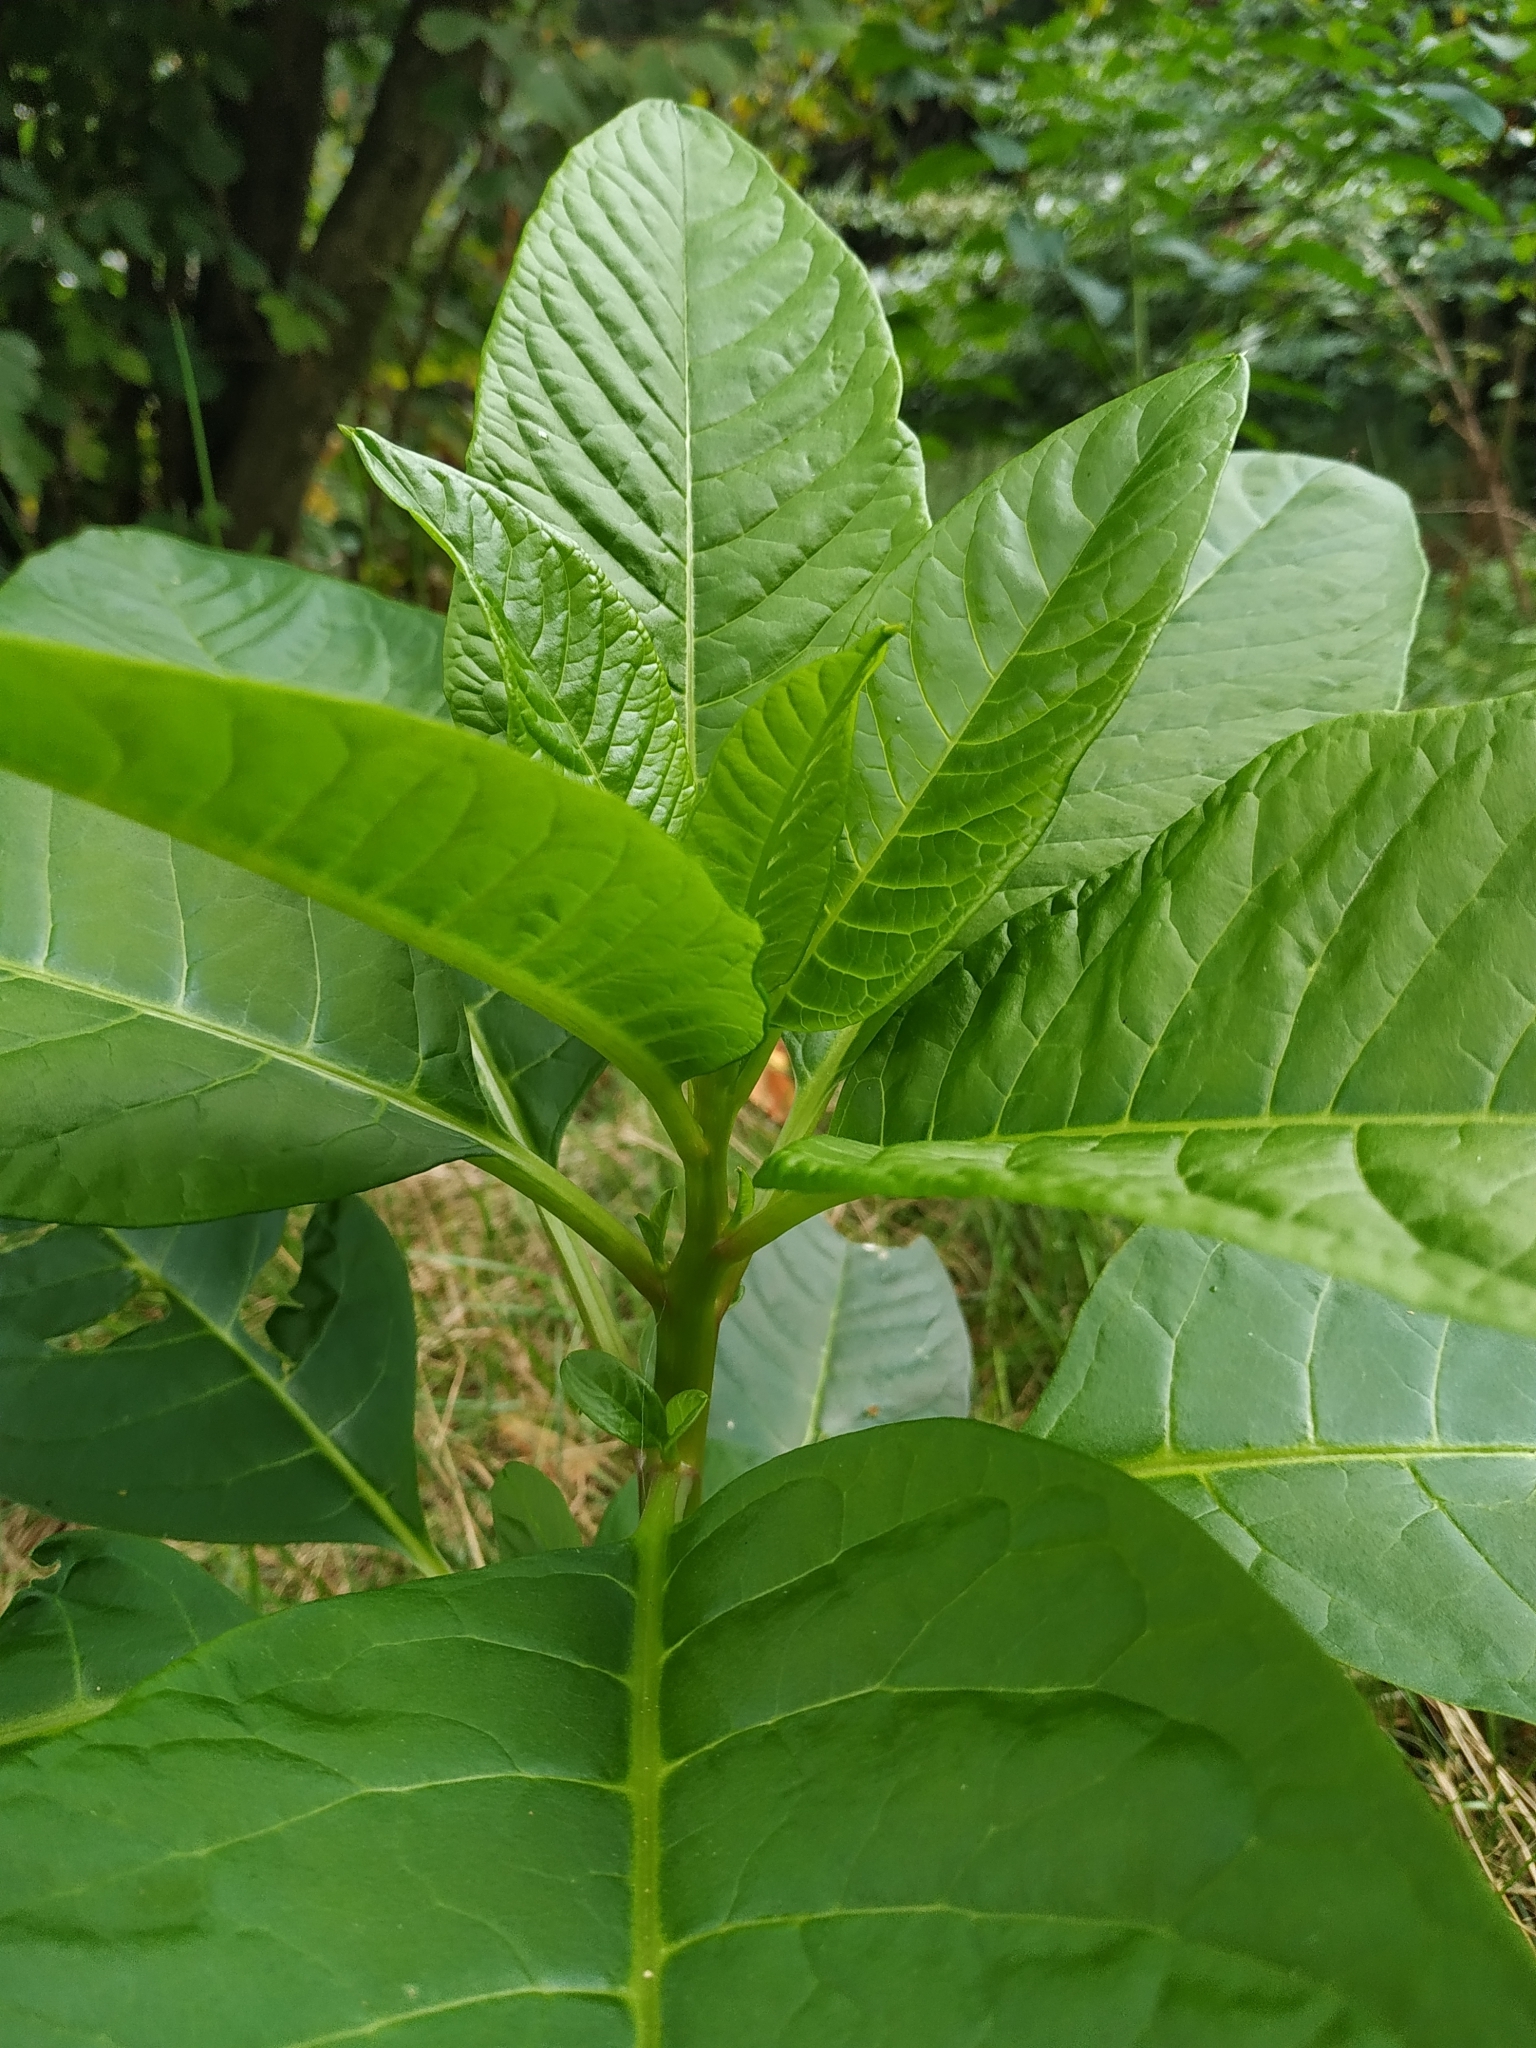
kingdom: Plantae
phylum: Tracheophyta
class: Magnoliopsida
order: Caryophyllales
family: Phytolaccaceae
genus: Phytolacca
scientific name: Phytolacca americana
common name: American pokeweed
